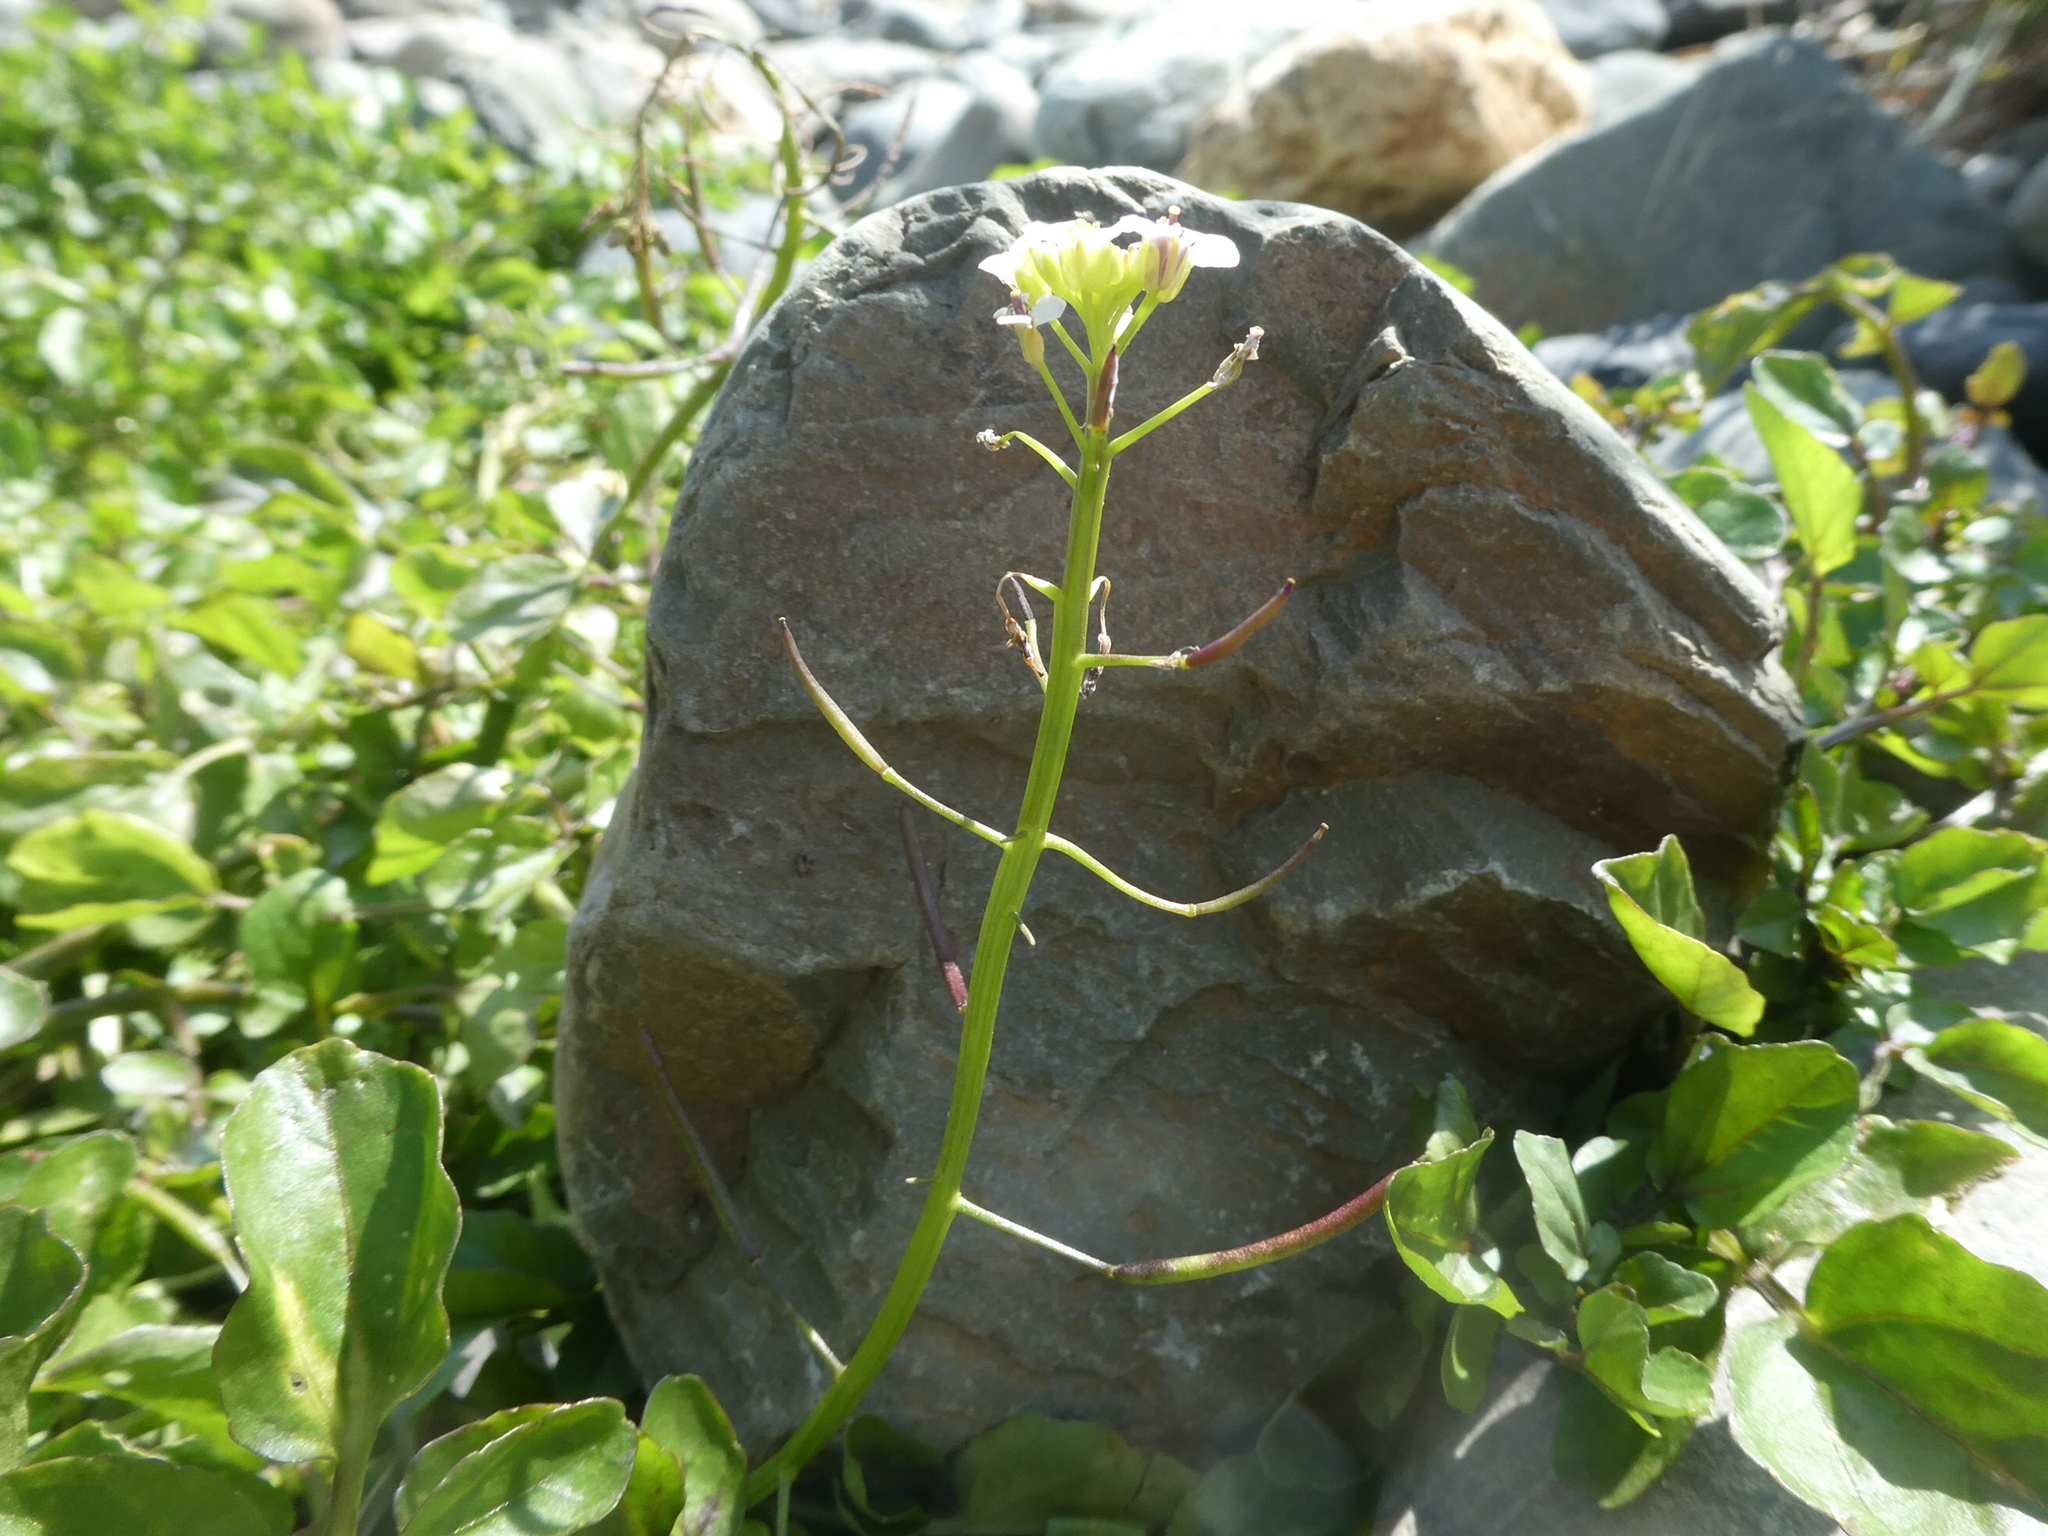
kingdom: Plantae
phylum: Tracheophyta
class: Magnoliopsida
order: Brassicales
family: Brassicaceae
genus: Nasturtium
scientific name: Nasturtium microphyllum
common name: Onerow yellowcress
